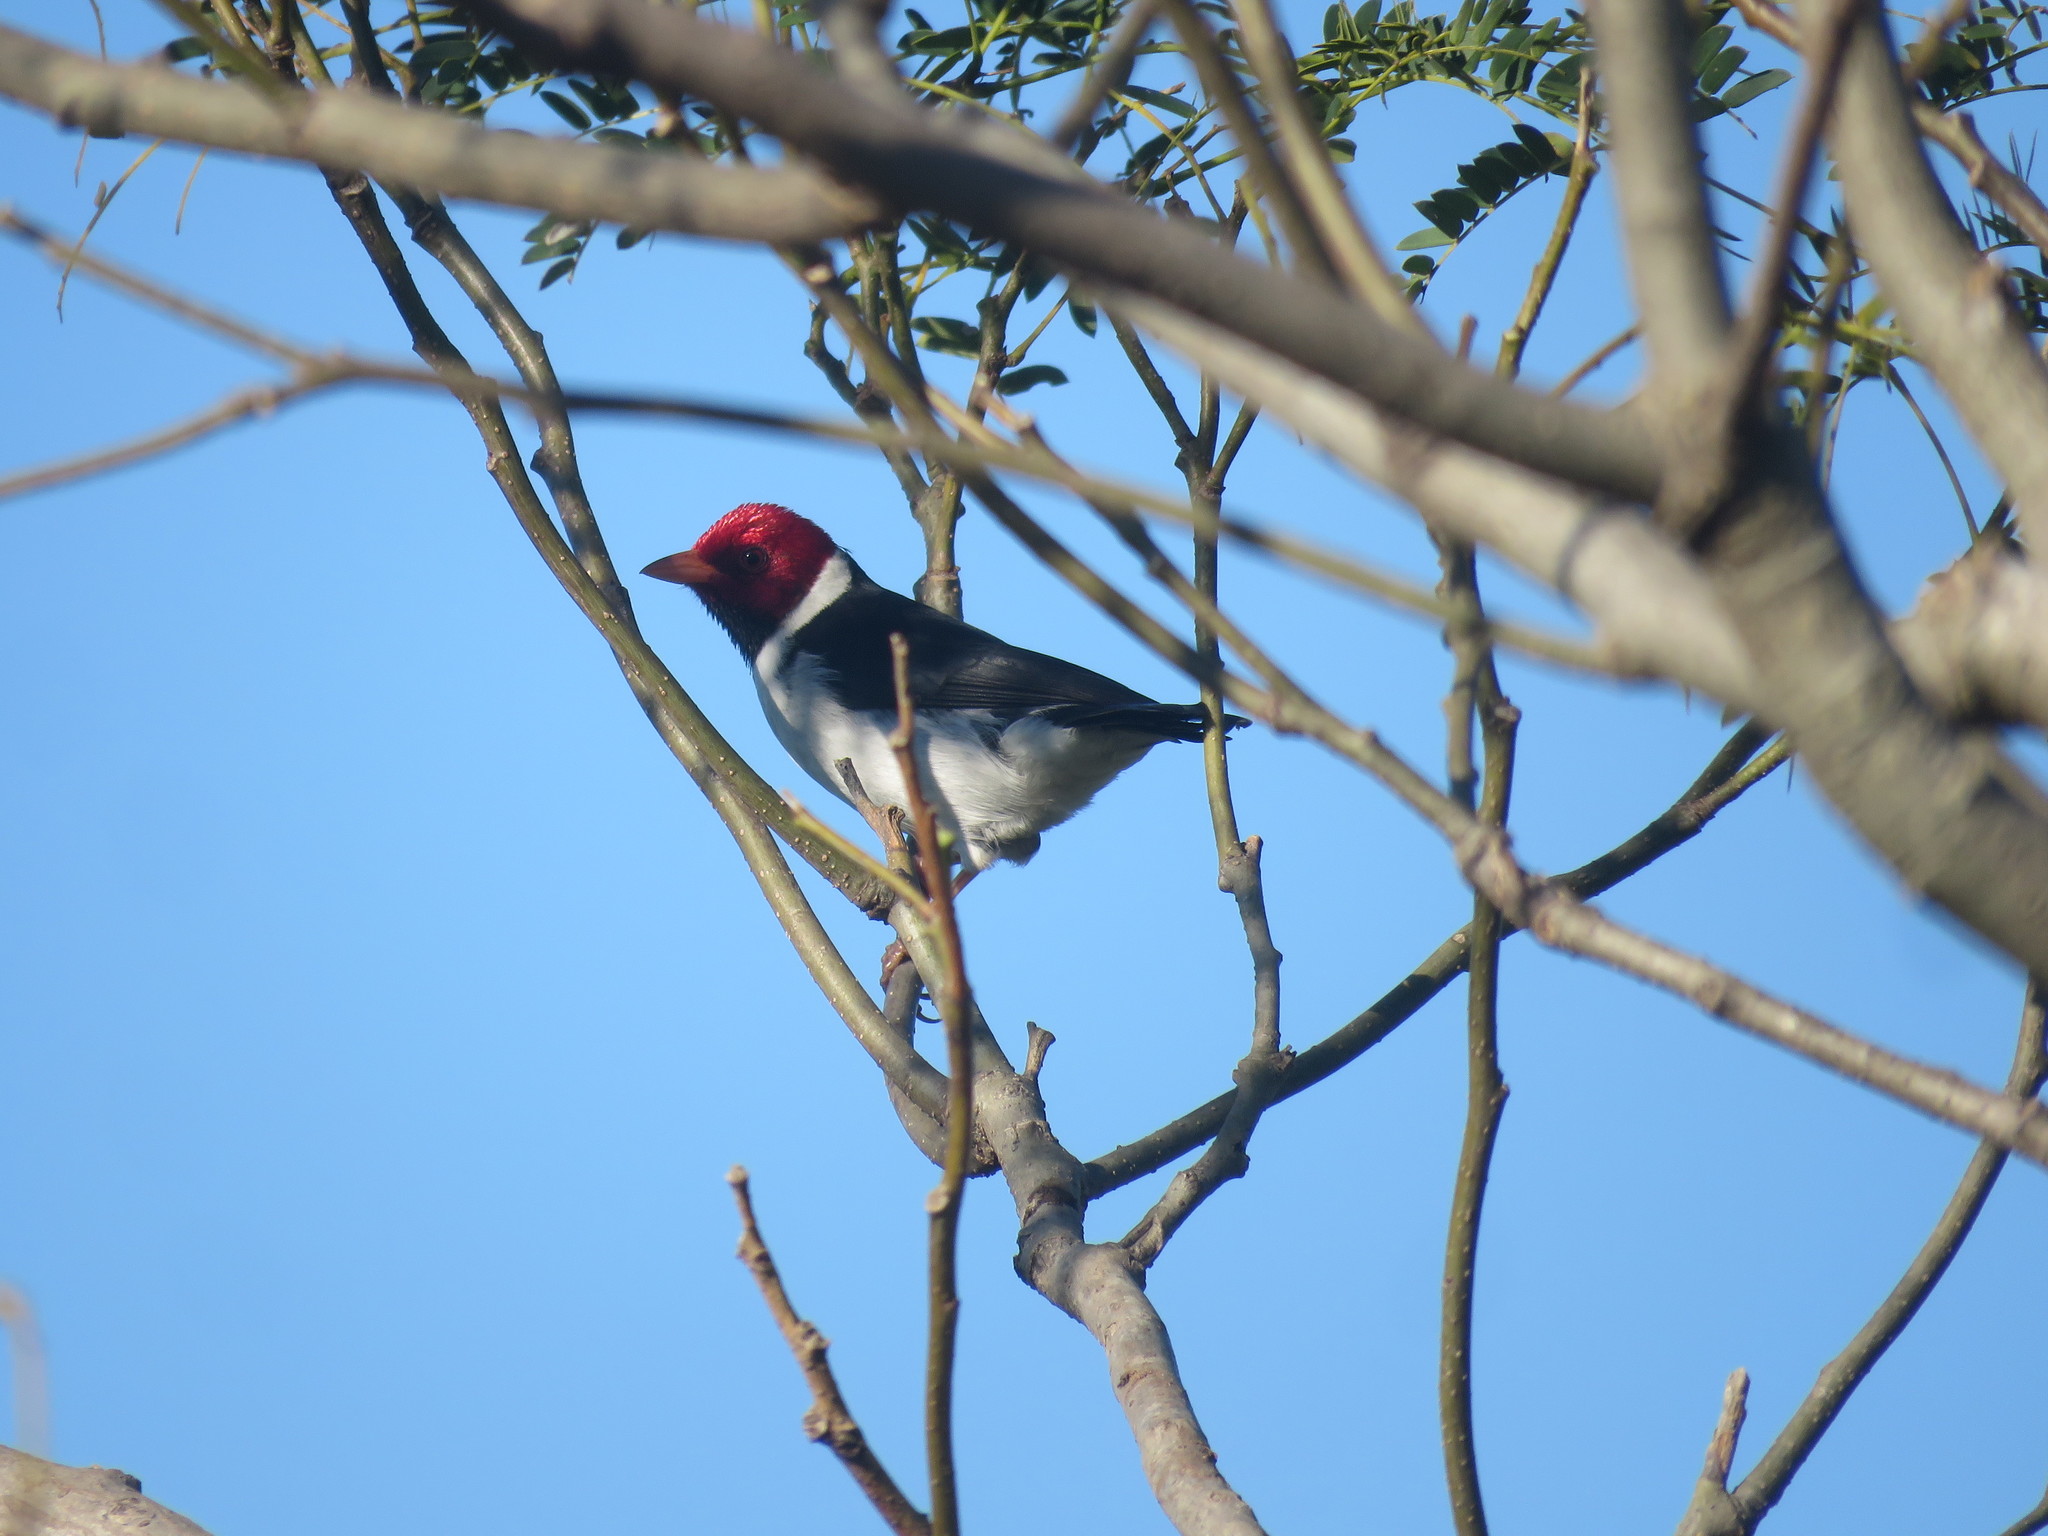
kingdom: Animalia
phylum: Chordata
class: Aves
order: Passeriformes
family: Thraupidae
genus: Paroaria
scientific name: Paroaria capitata
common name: Yellow-billed cardinal
